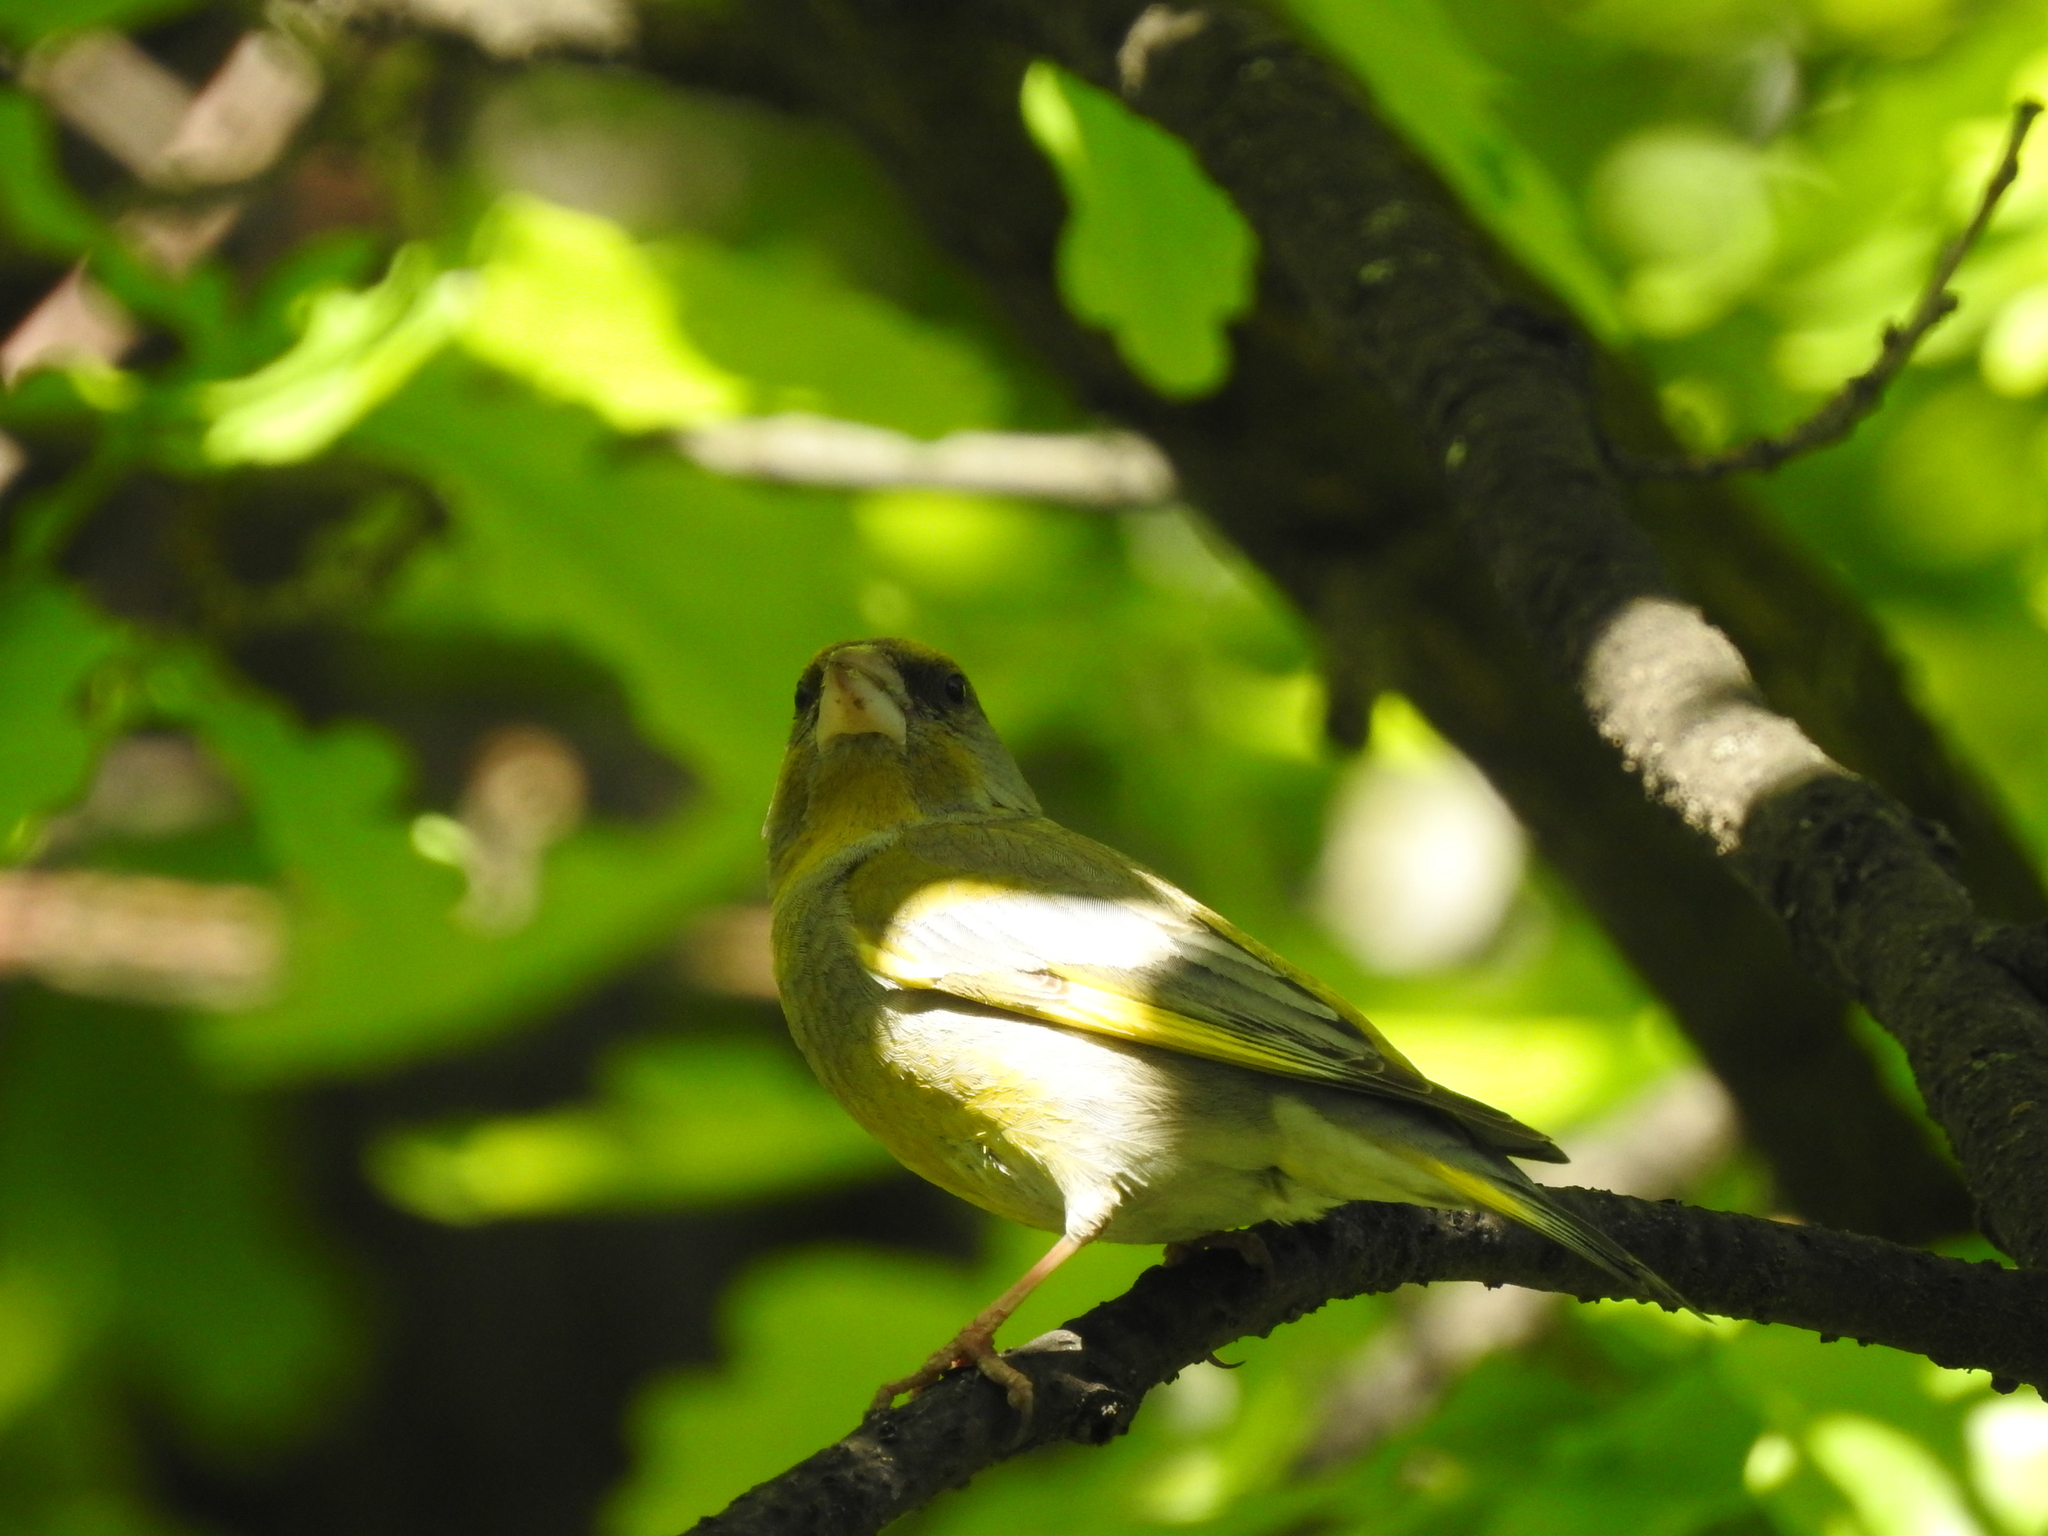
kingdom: Plantae
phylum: Tracheophyta
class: Liliopsida
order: Poales
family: Poaceae
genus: Chloris
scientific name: Chloris chloris
